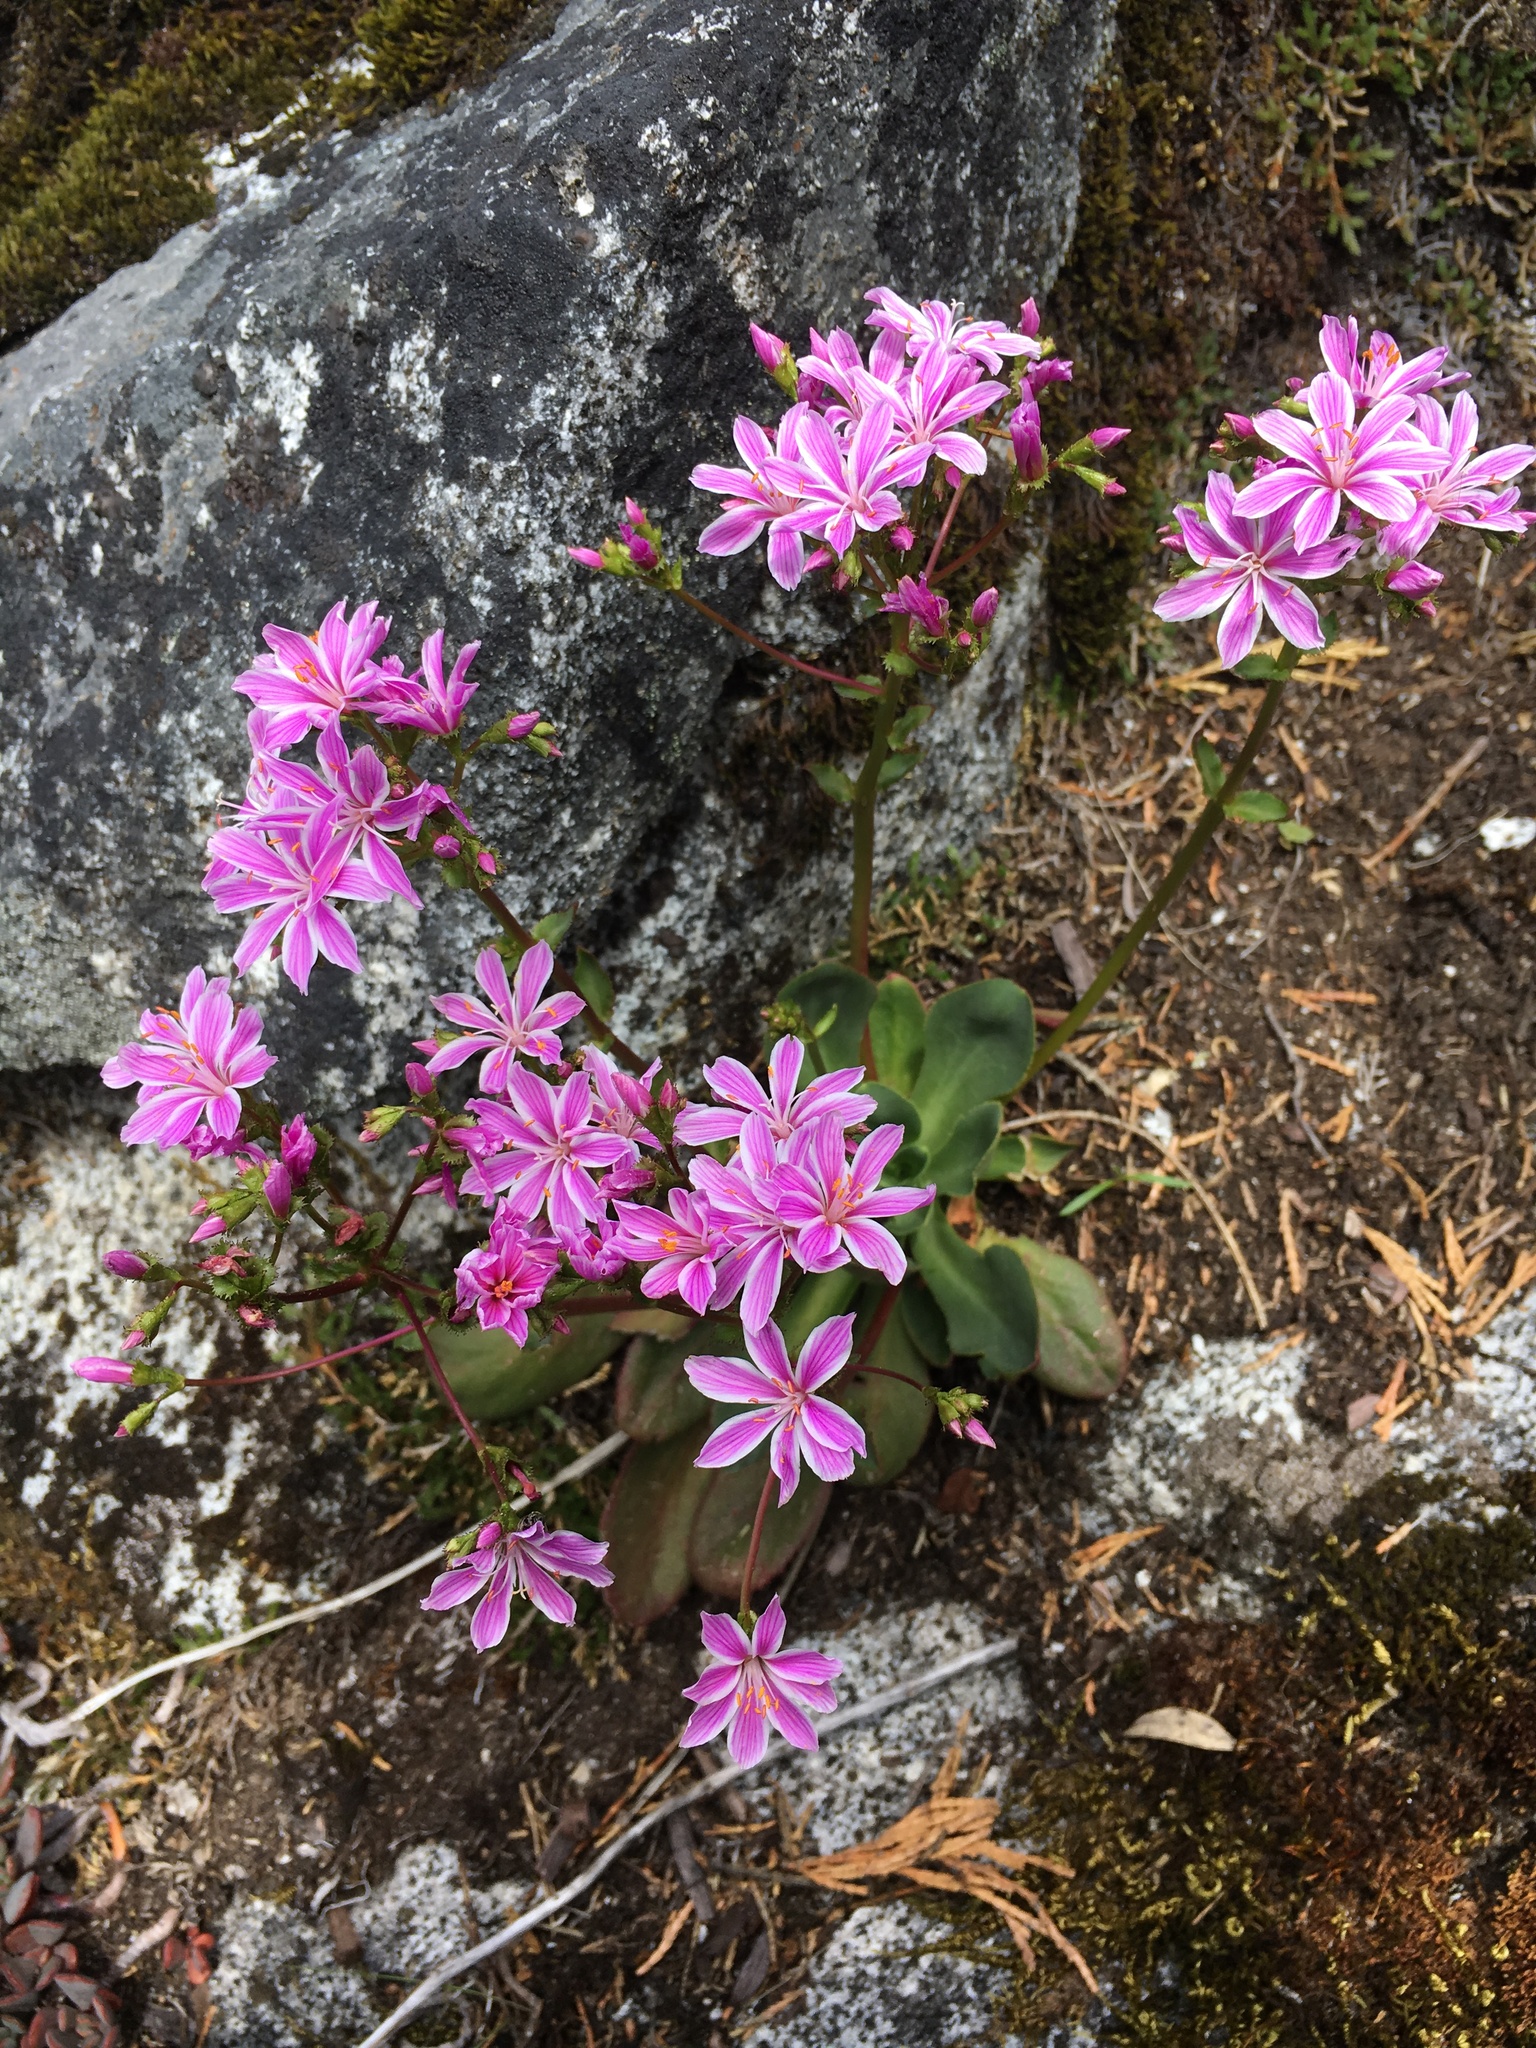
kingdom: Plantae
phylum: Tracheophyta
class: Magnoliopsida
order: Caryophyllales
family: Montiaceae
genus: Lewisia
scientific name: Lewisia cotyledon
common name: Siskiyou lewisia
